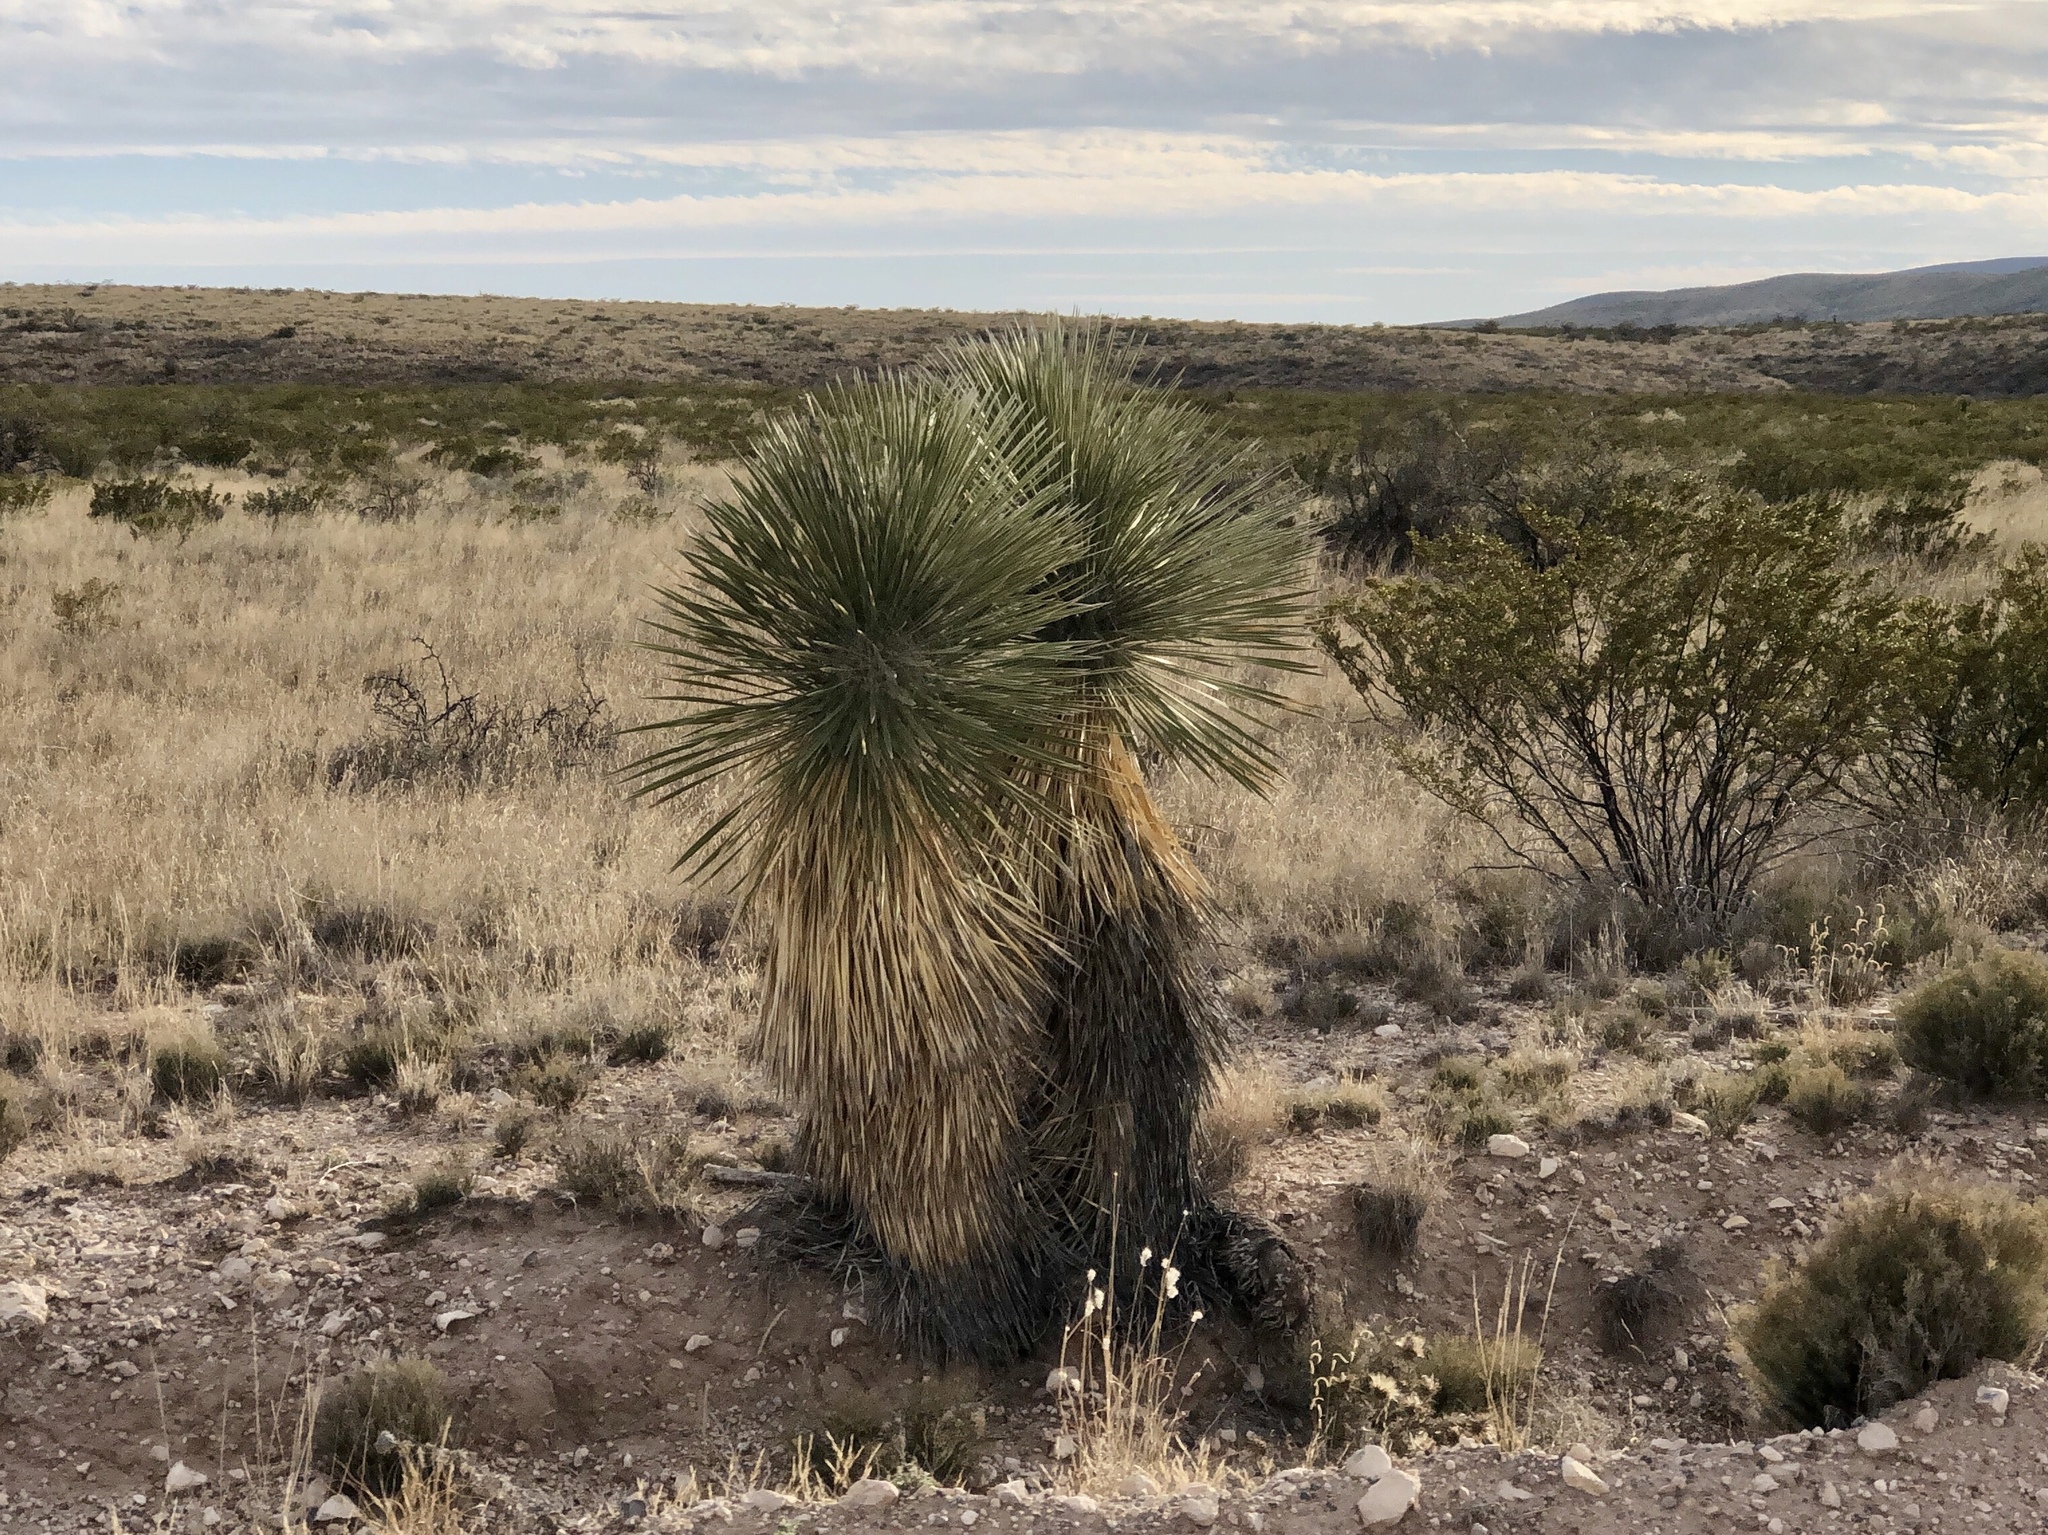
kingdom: Plantae
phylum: Tracheophyta
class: Liliopsida
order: Asparagales
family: Asparagaceae
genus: Yucca
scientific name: Yucca elata
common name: Palmella
